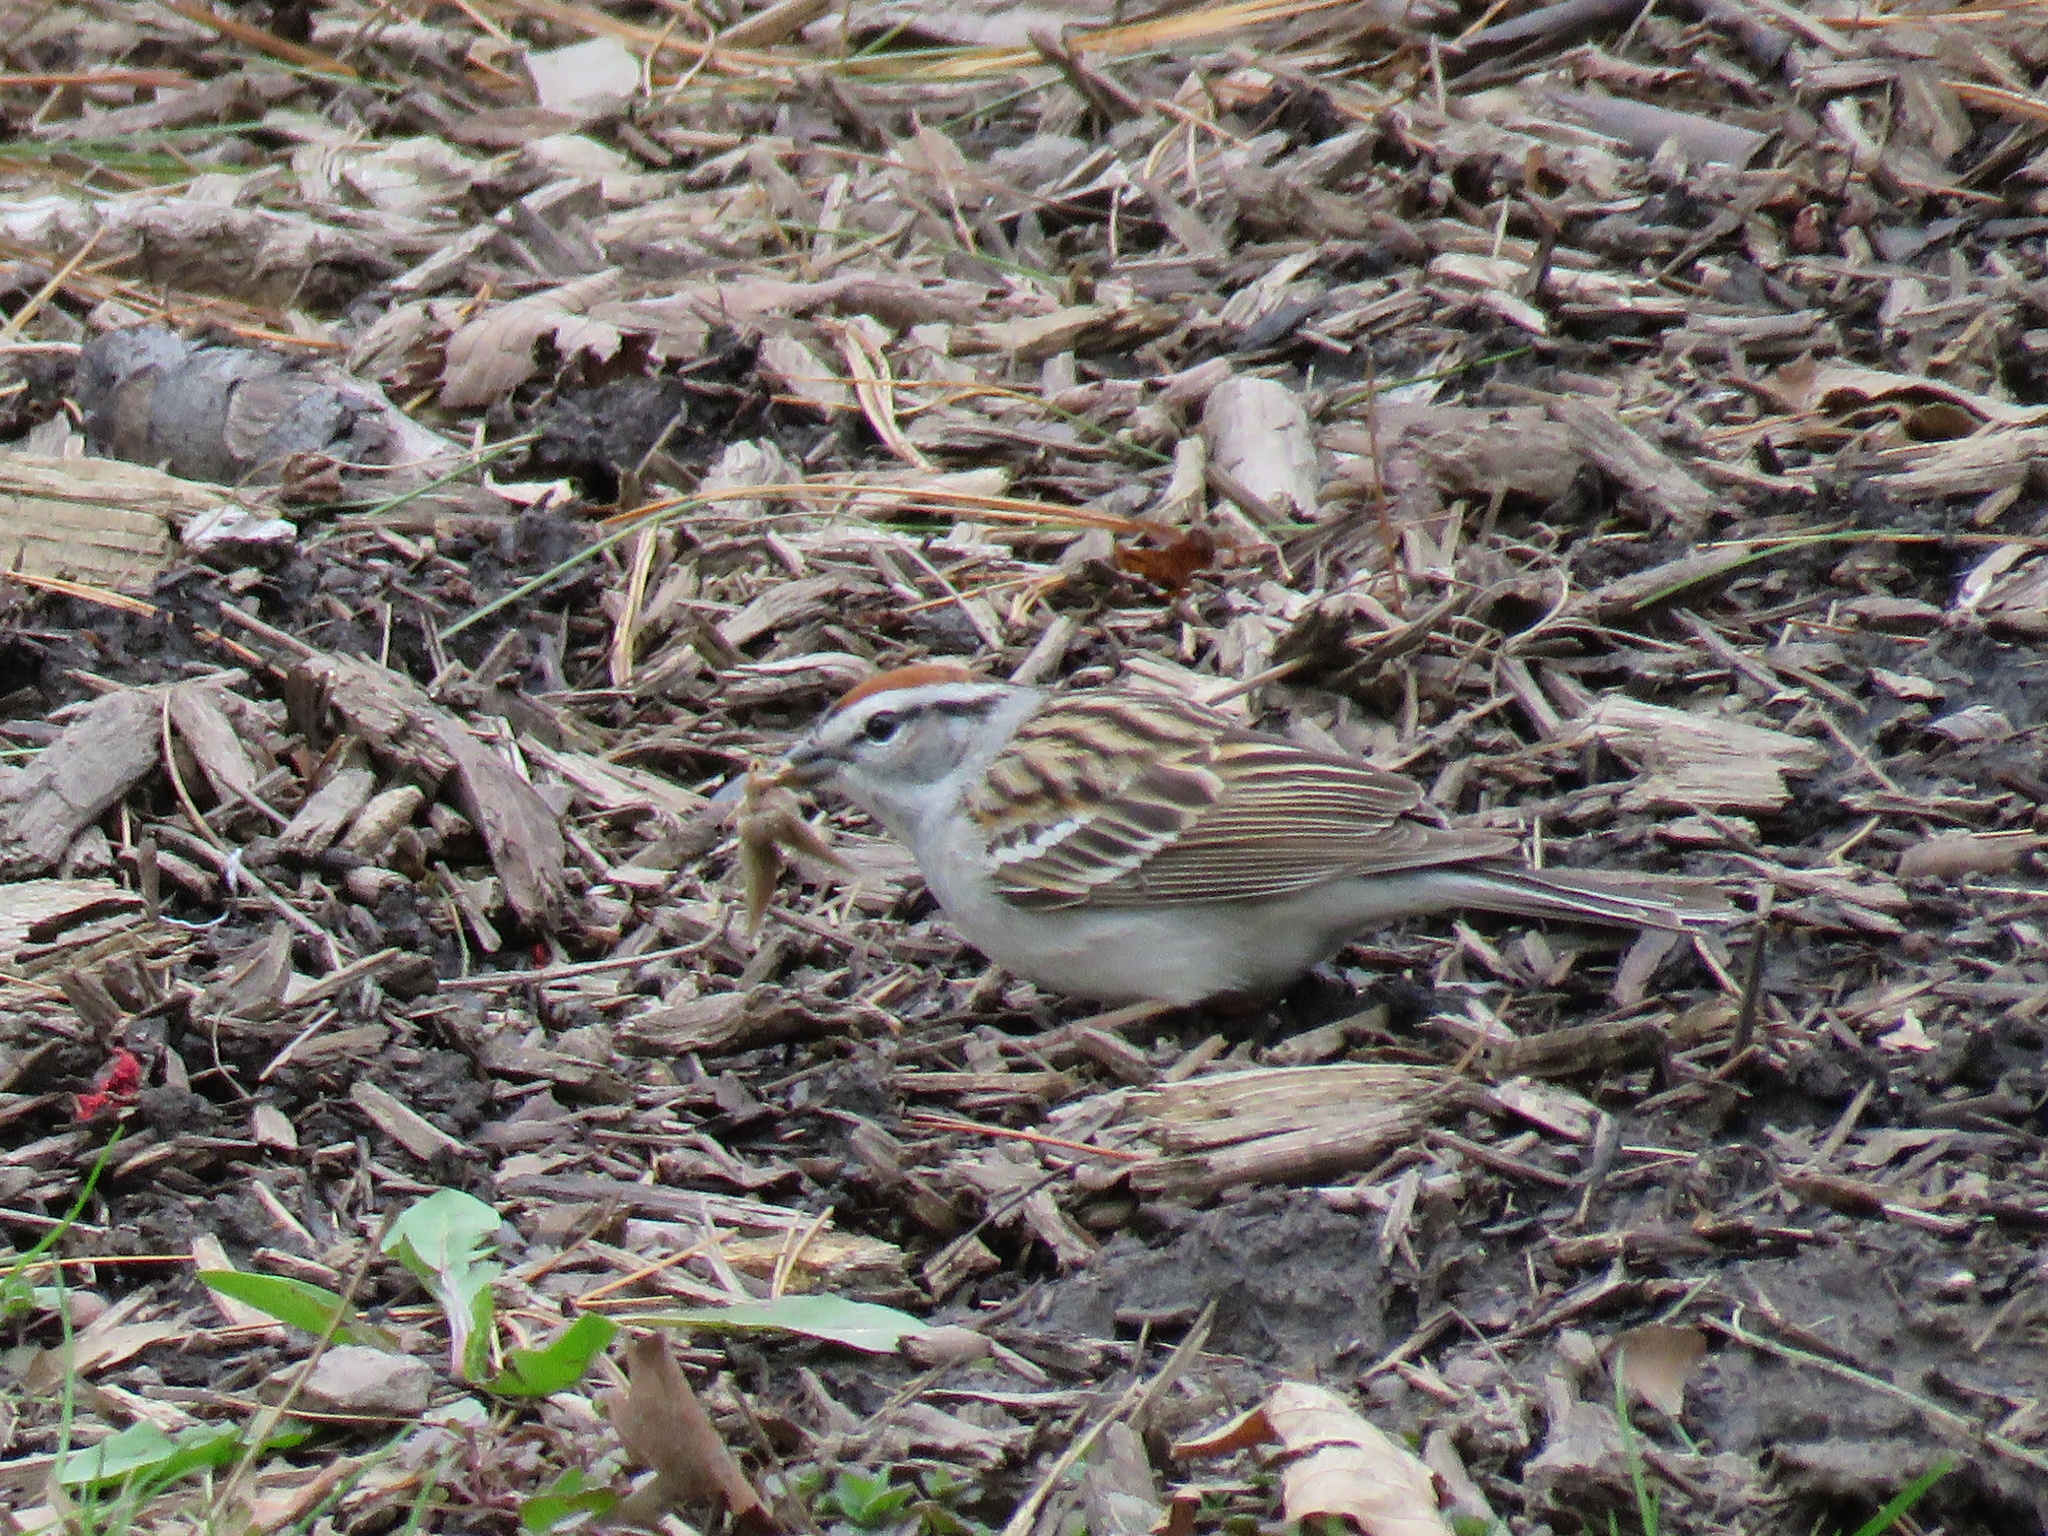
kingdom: Animalia
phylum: Chordata
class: Aves
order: Passeriformes
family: Passerellidae
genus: Spizella
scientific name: Spizella passerina
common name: Chipping sparrow
